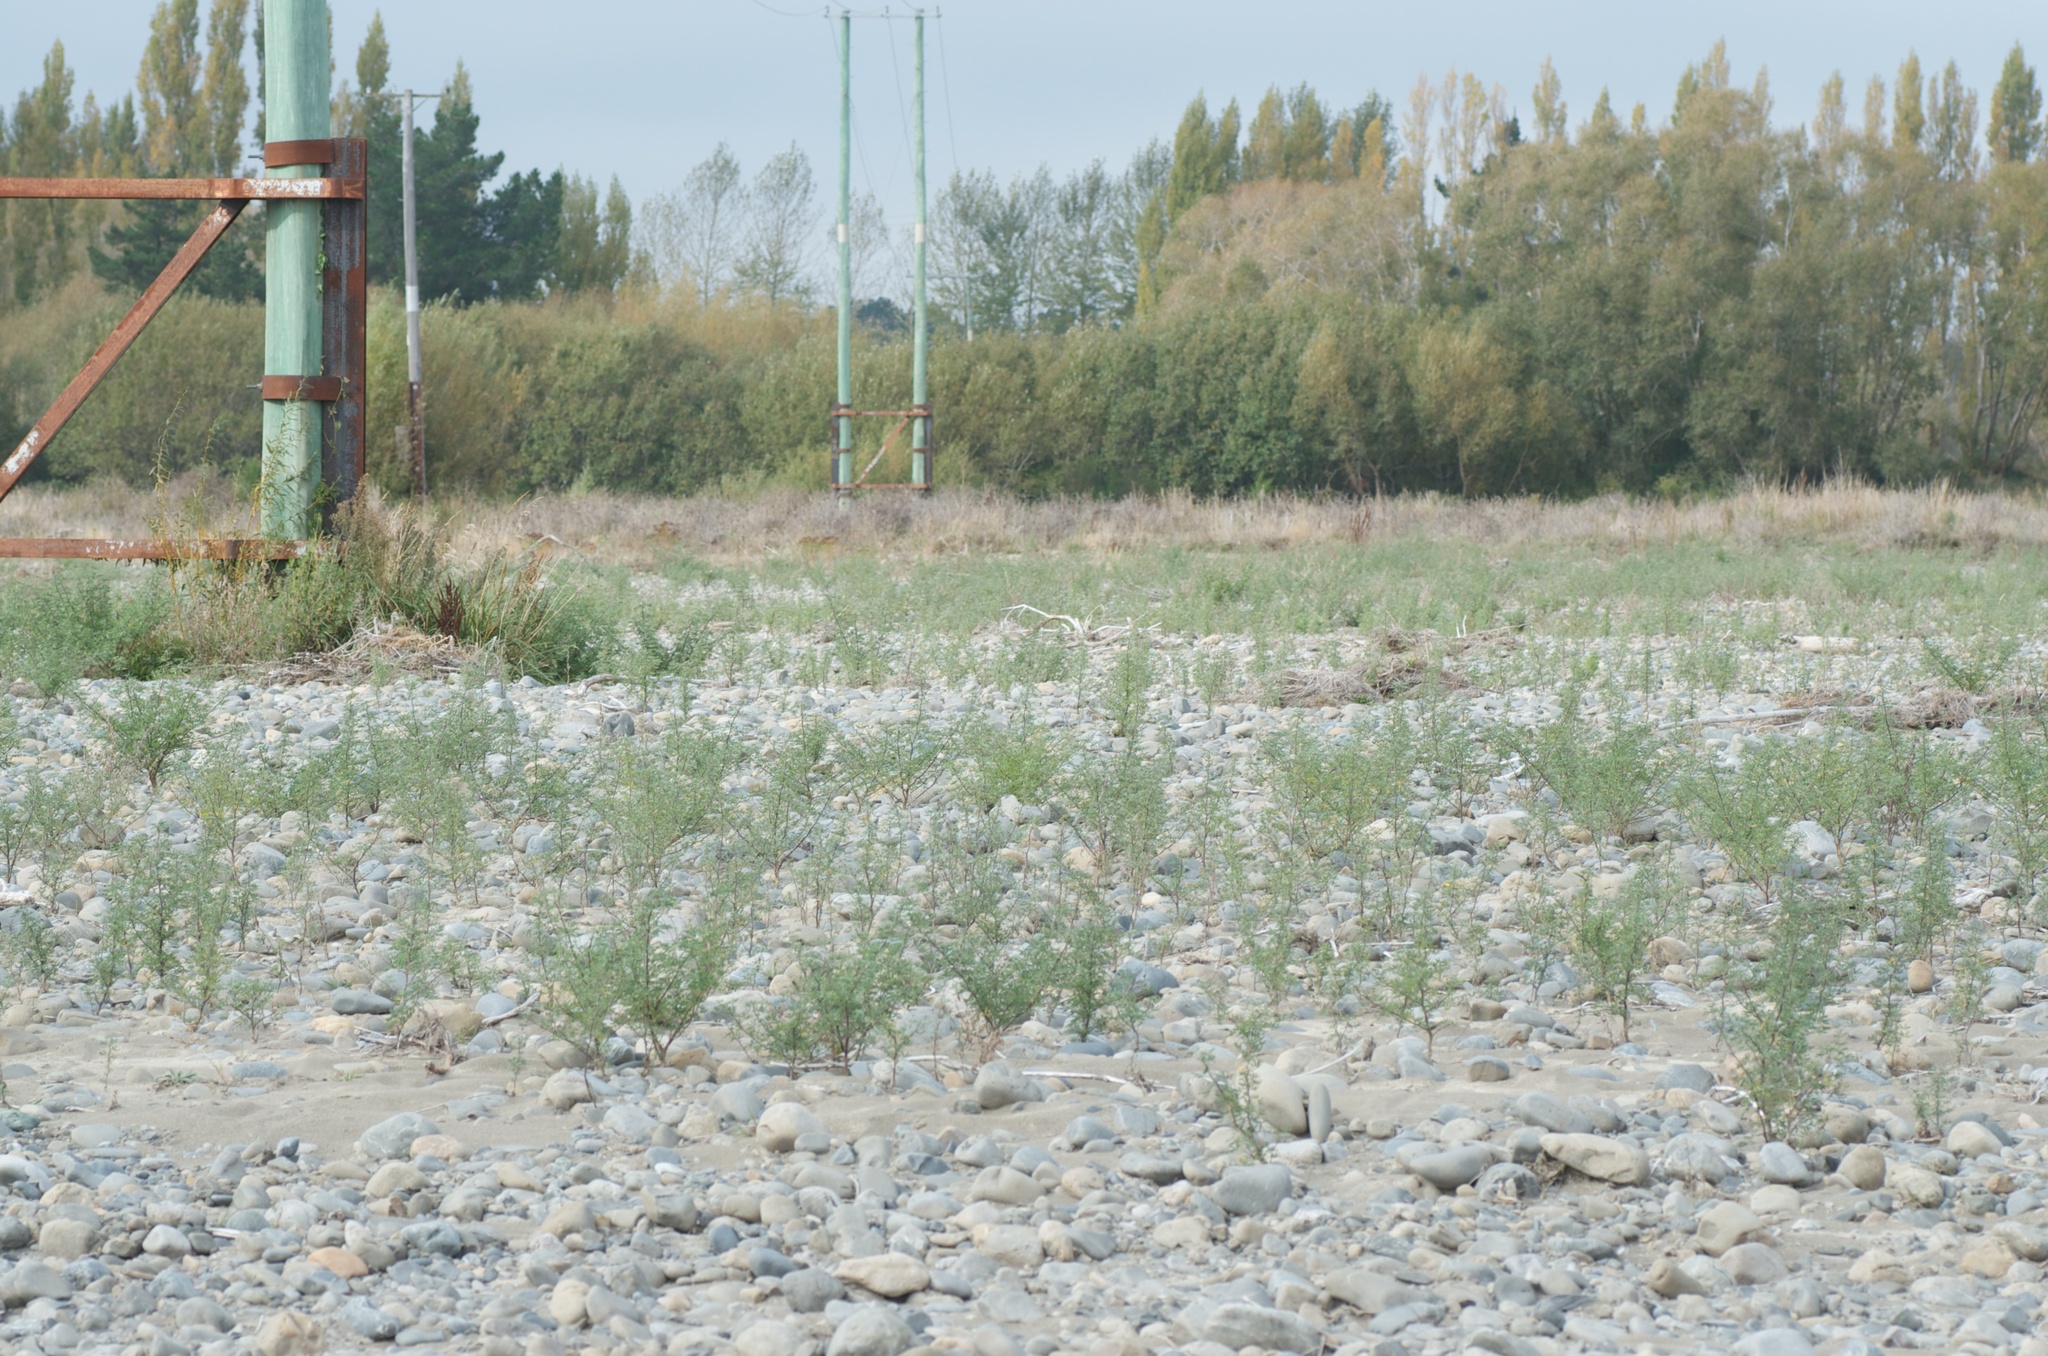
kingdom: Plantae
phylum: Tracheophyta
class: Magnoliopsida
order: Fabales
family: Fabaceae
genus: Lupinus
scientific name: Lupinus arboreus
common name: Yellow bush lupine
